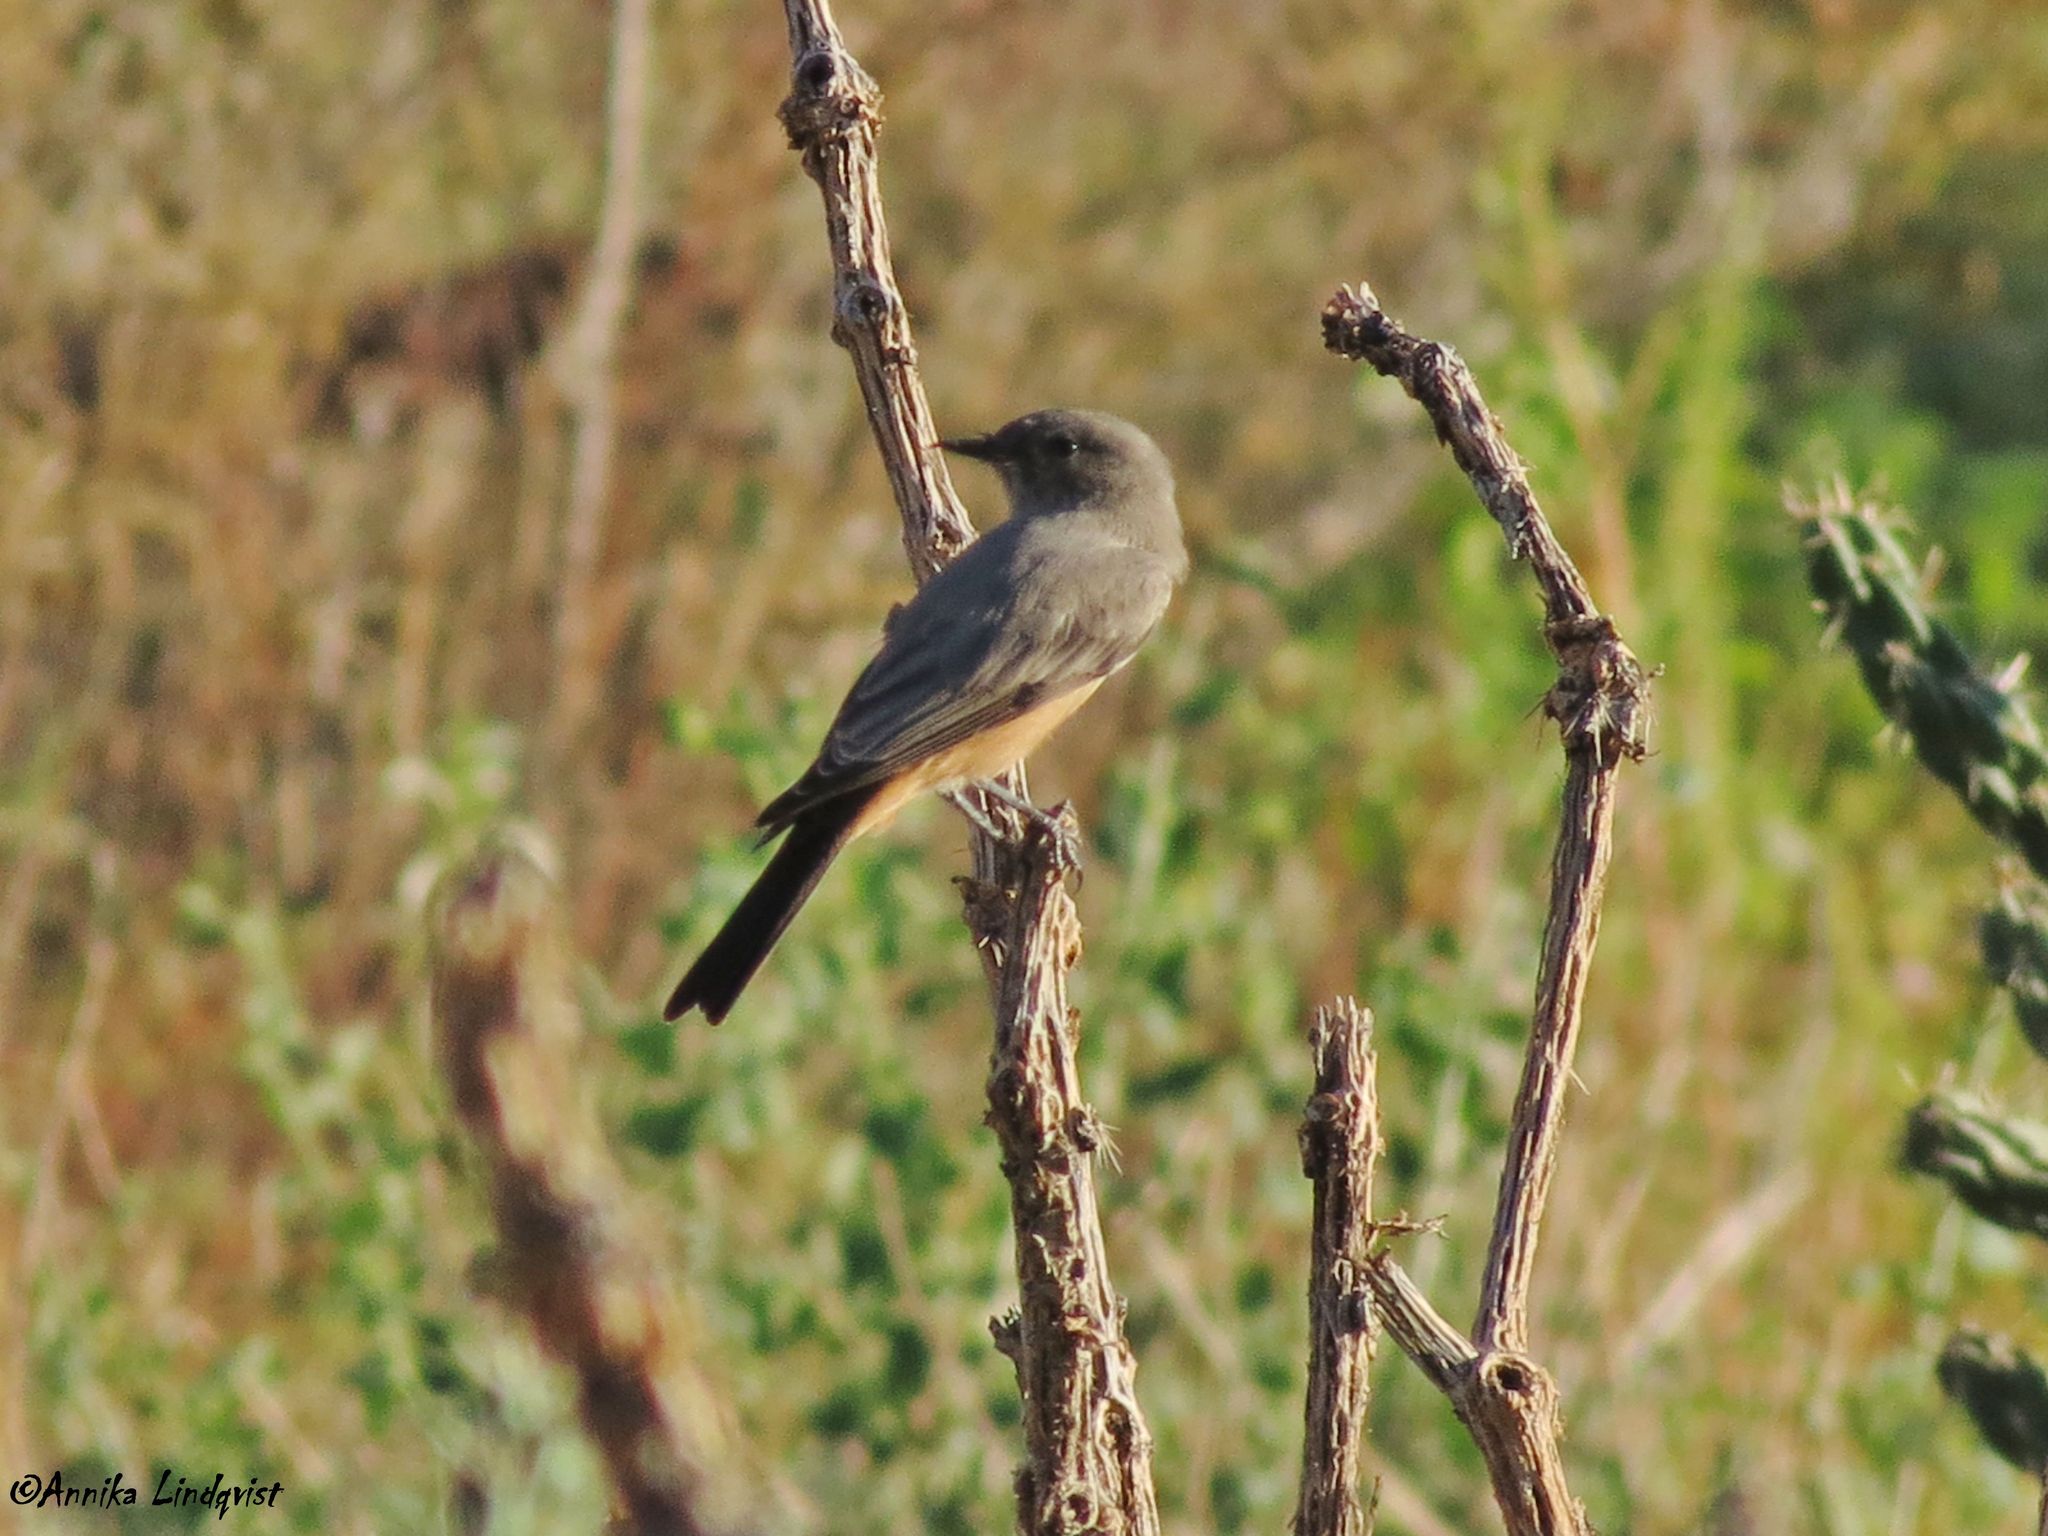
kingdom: Animalia
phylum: Chordata
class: Aves
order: Passeriformes
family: Tyrannidae
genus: Sayornis
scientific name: Sayornis saya
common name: Say's phoebe
